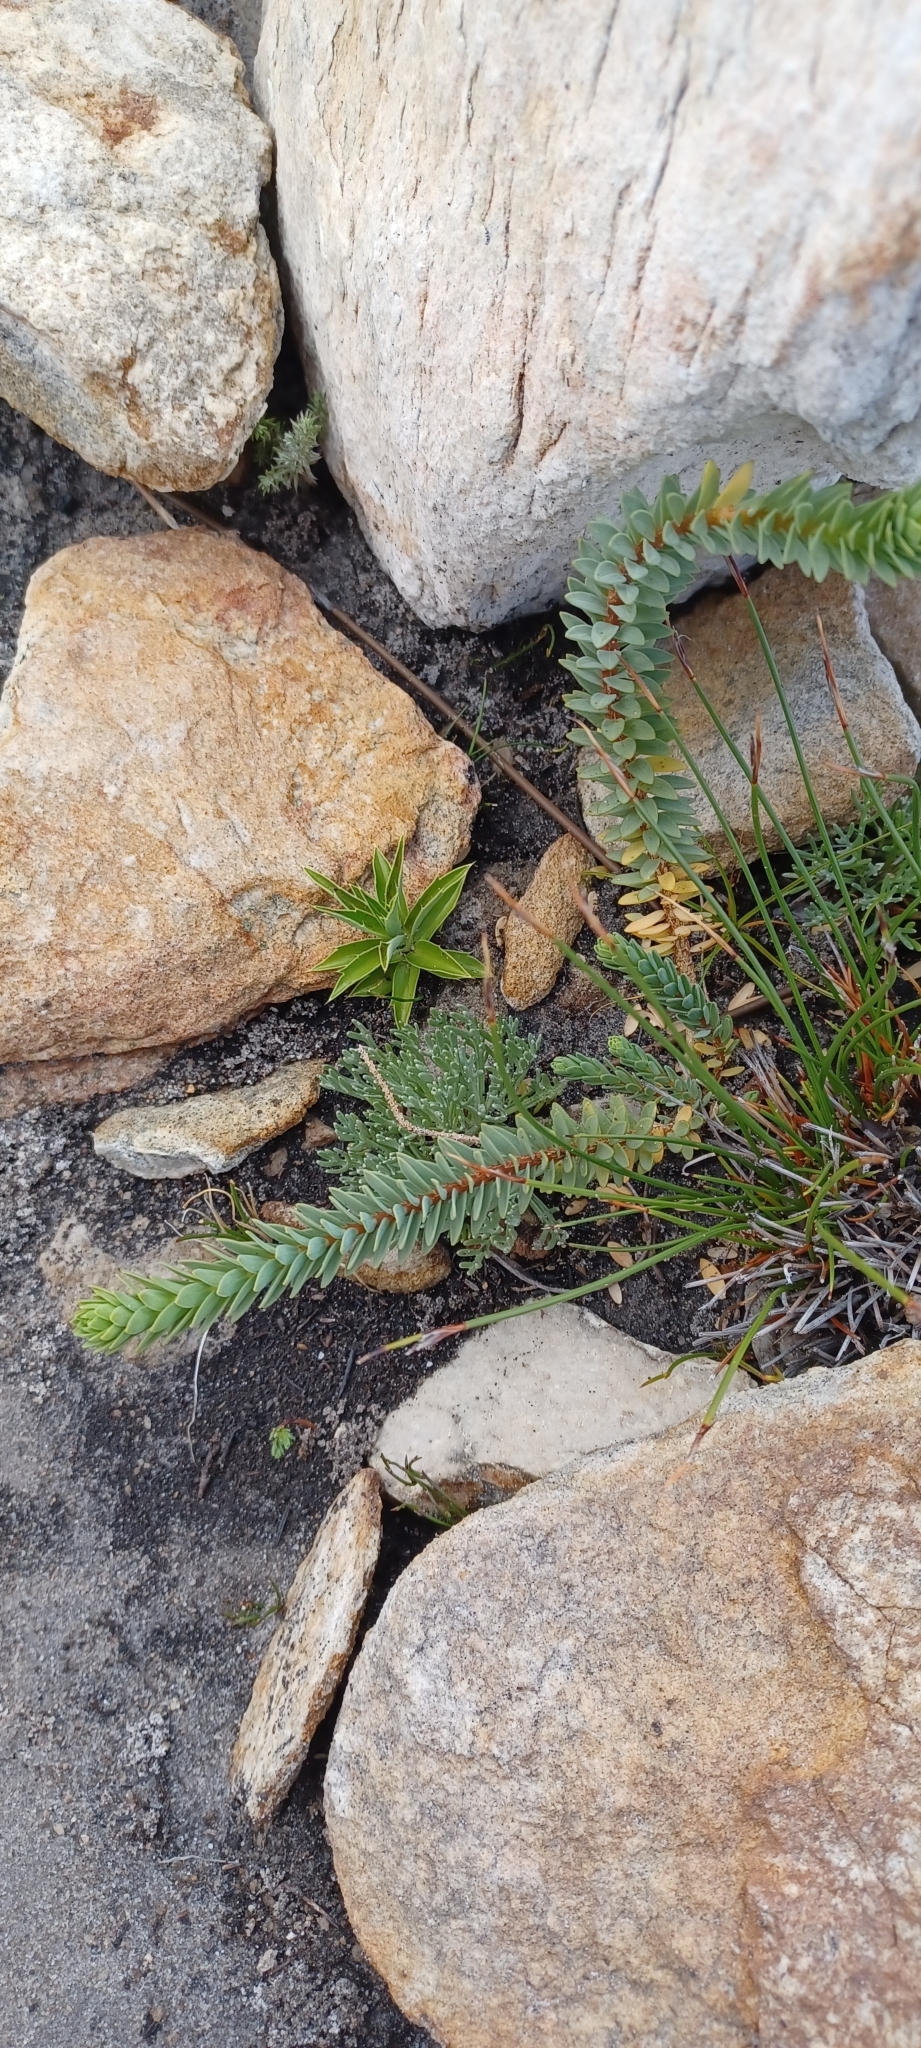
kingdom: Plantae
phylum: Tracheophyta
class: Magnoliopsida
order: Malvales
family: Thymelaeaceae
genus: Lachnaea
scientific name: Lachnaea pomposa
